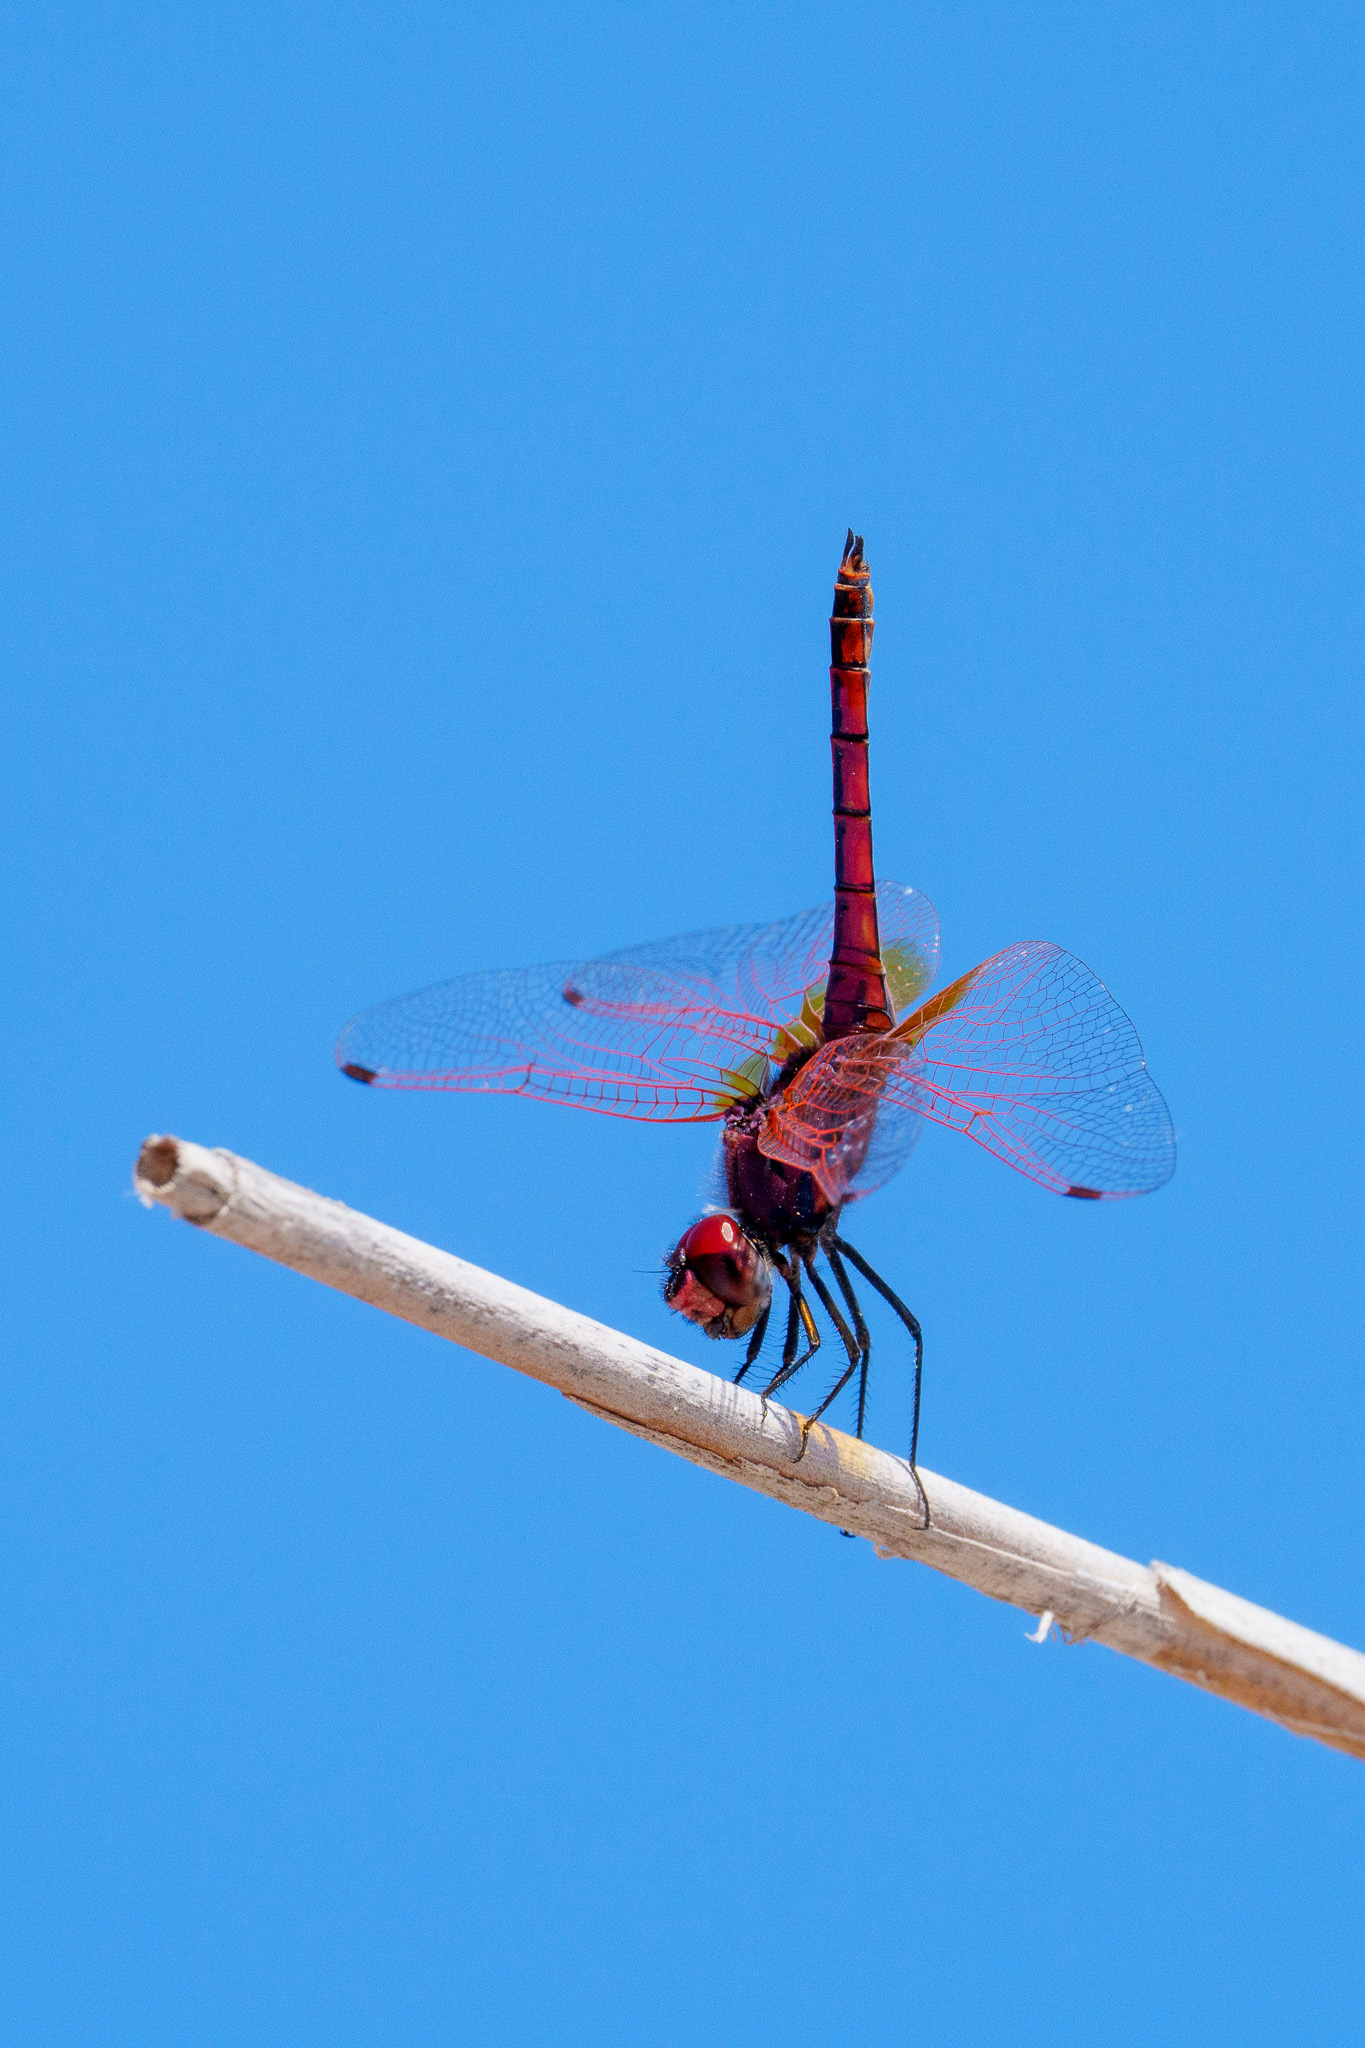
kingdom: Animalia
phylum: Arthropoda
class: Insecta
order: Odonata
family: Libellulidae
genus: Trithemis
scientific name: Trithemis annulata
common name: Violet dropwing
